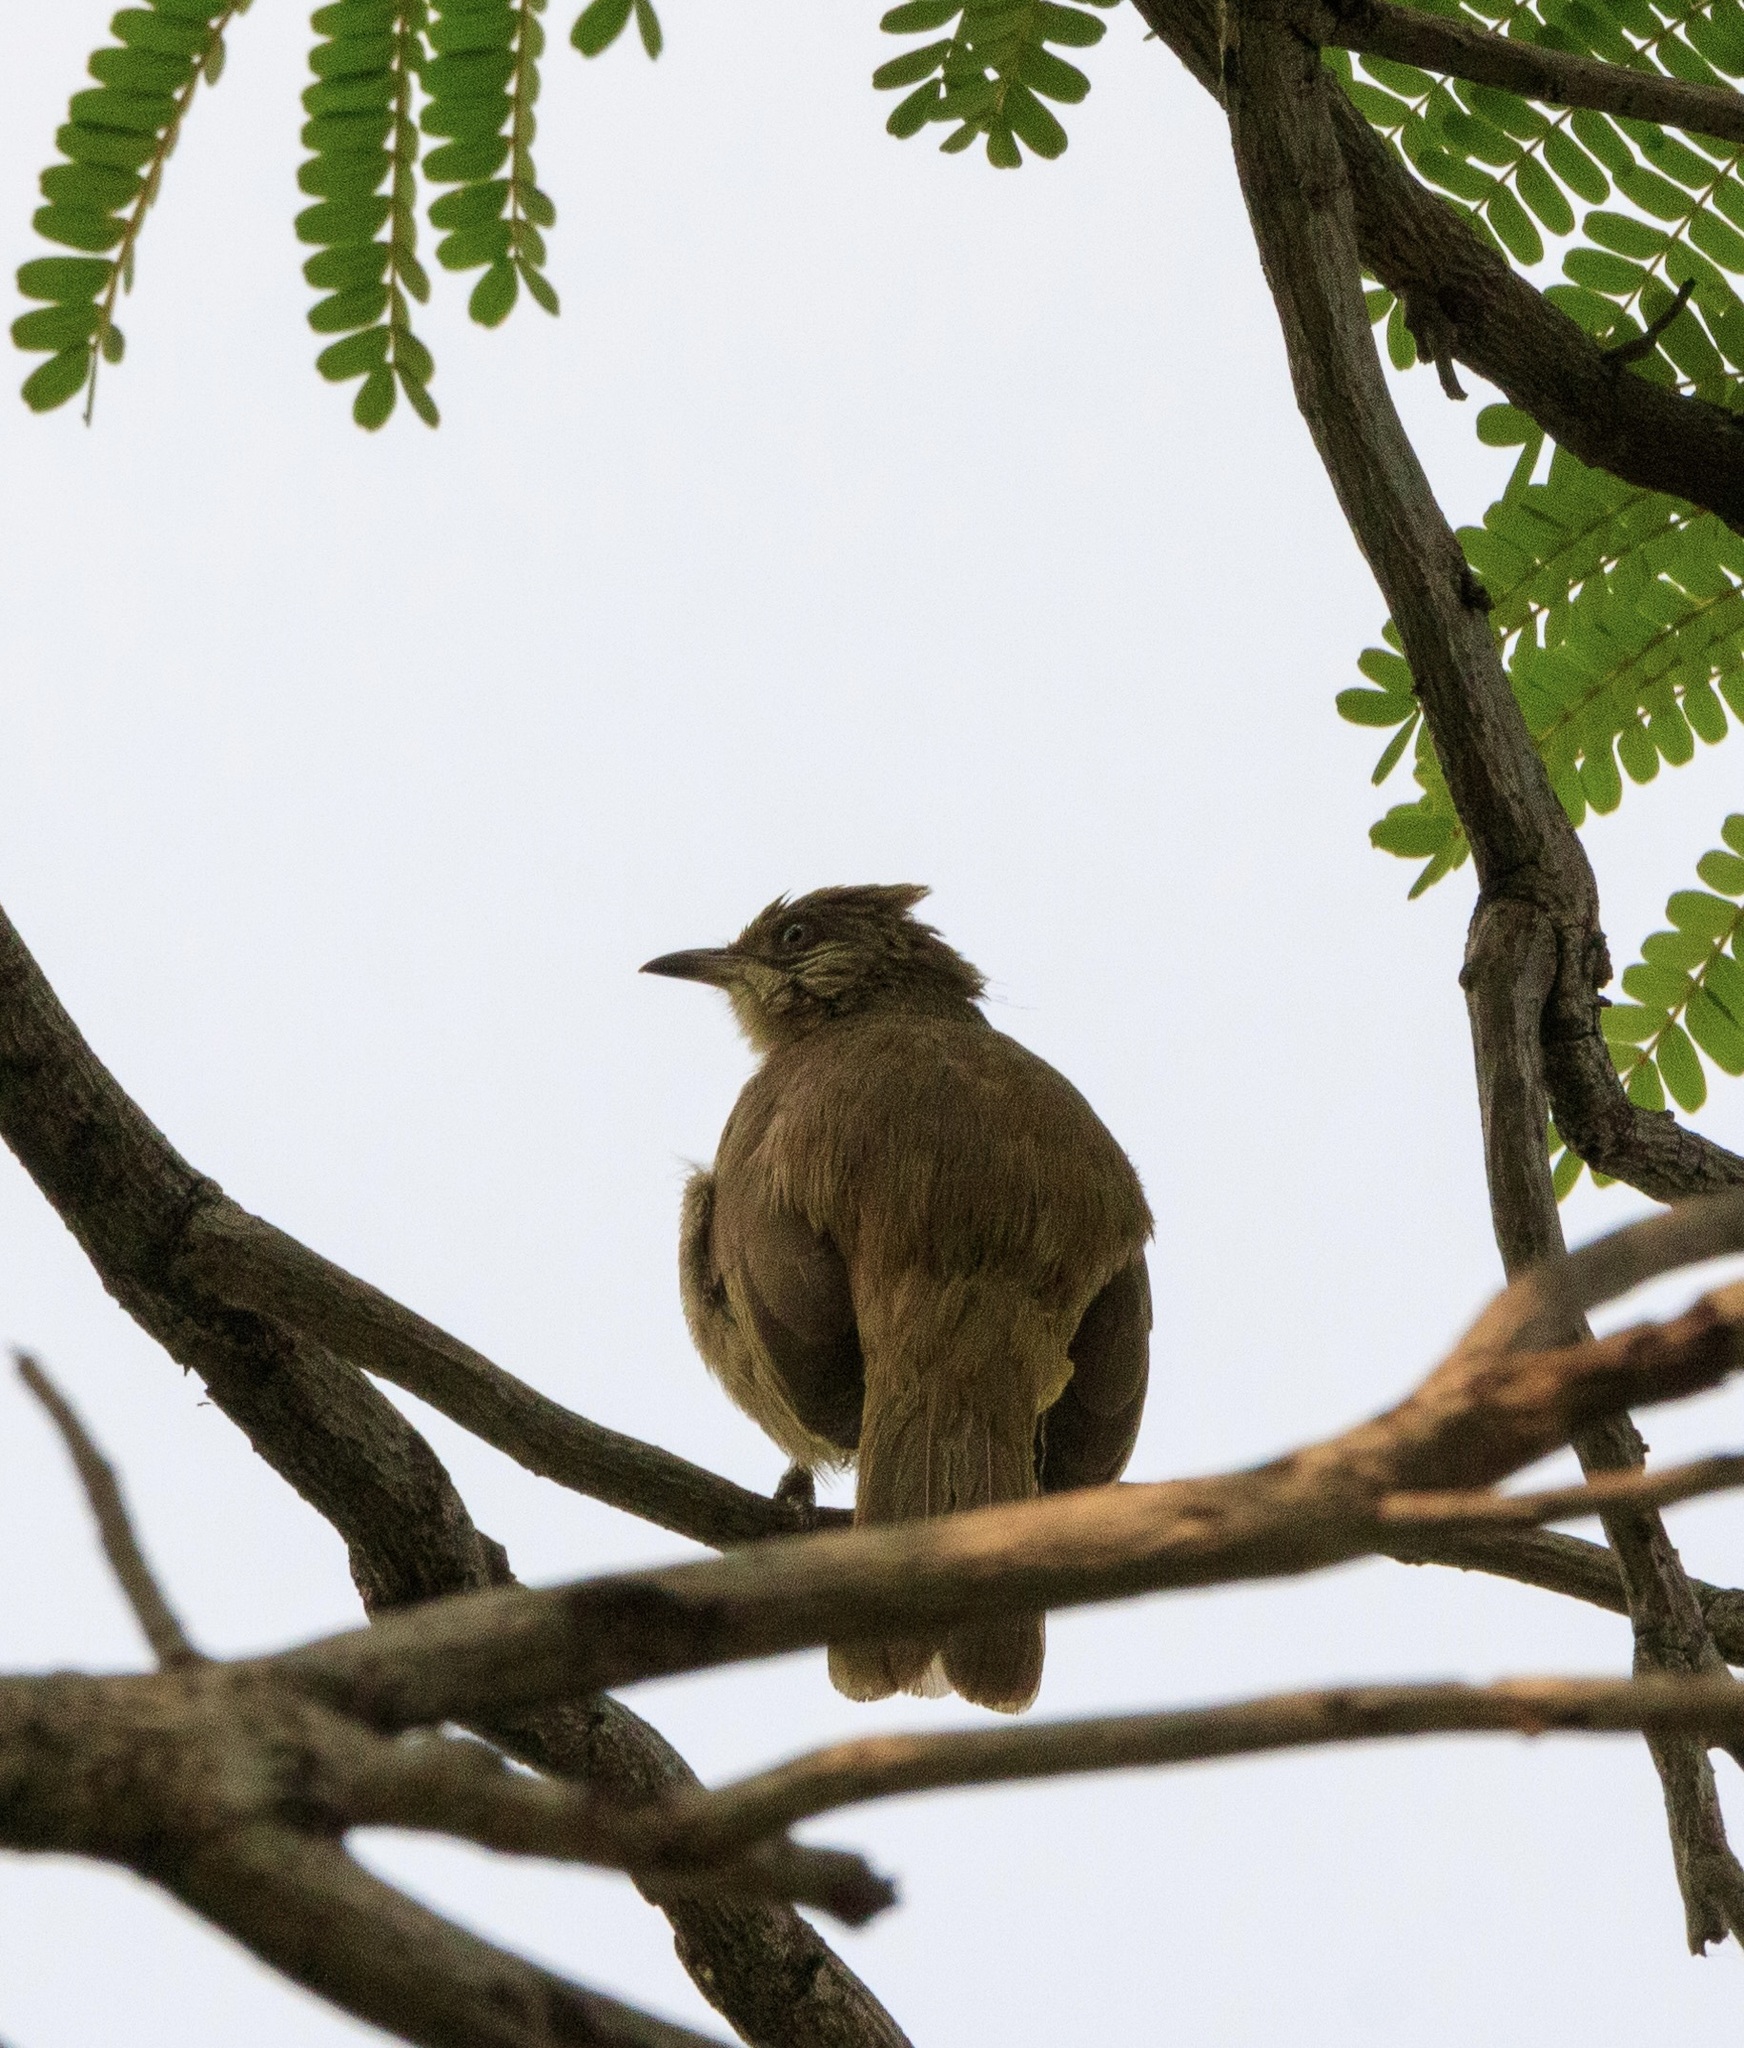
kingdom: Animalia
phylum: Chordata
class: Aves
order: Passeriformes
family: Pycnonotidae
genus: Pycnonotus
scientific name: Pycnonotus blanfordi
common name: Streak-eared bulbul
